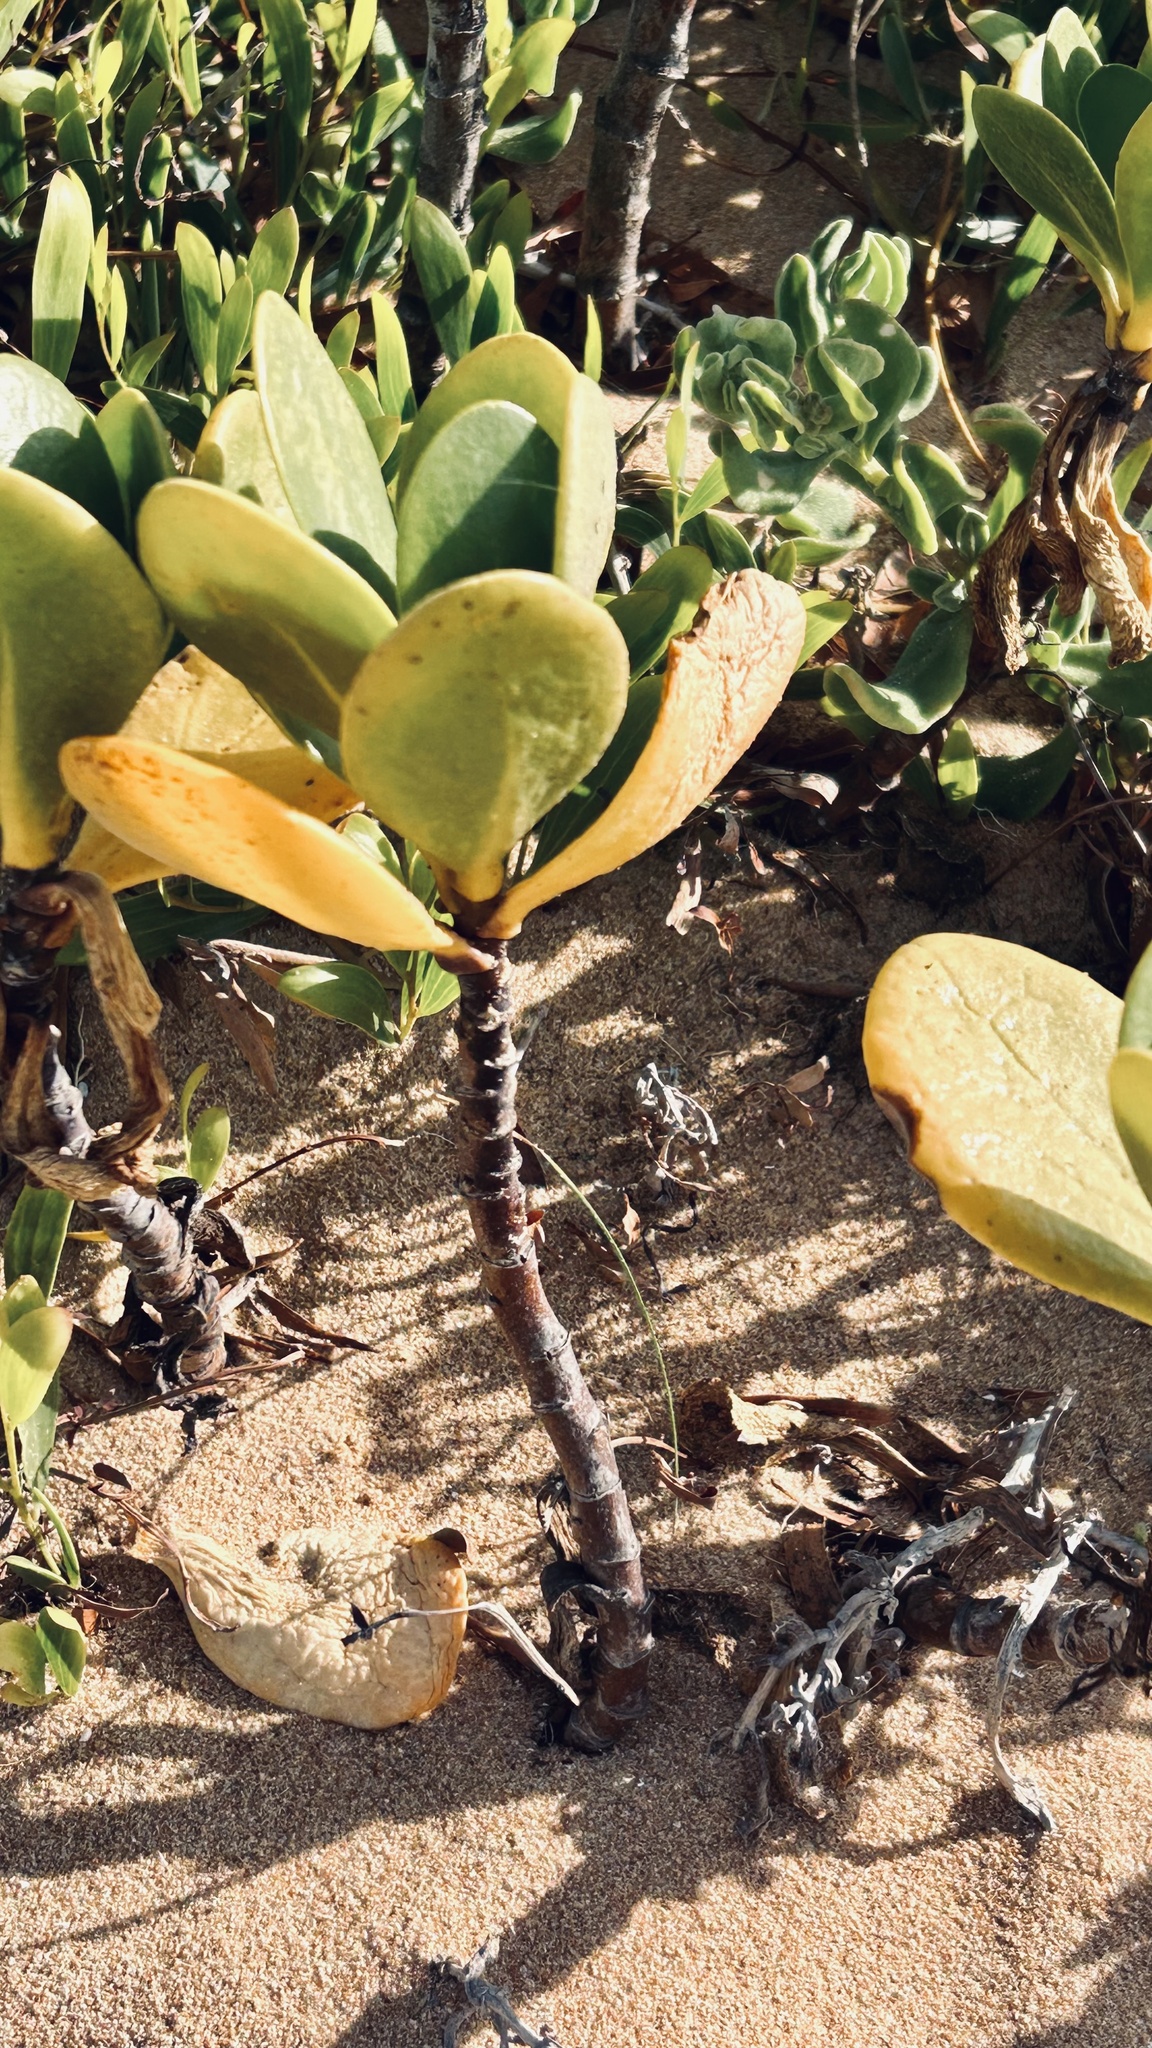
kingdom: Plantae
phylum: Tracheophyta
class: Magnoliopsida
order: Asterales
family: Goodeniaceae
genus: Scaevola
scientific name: Scaevola plumieri
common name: Gull feed
